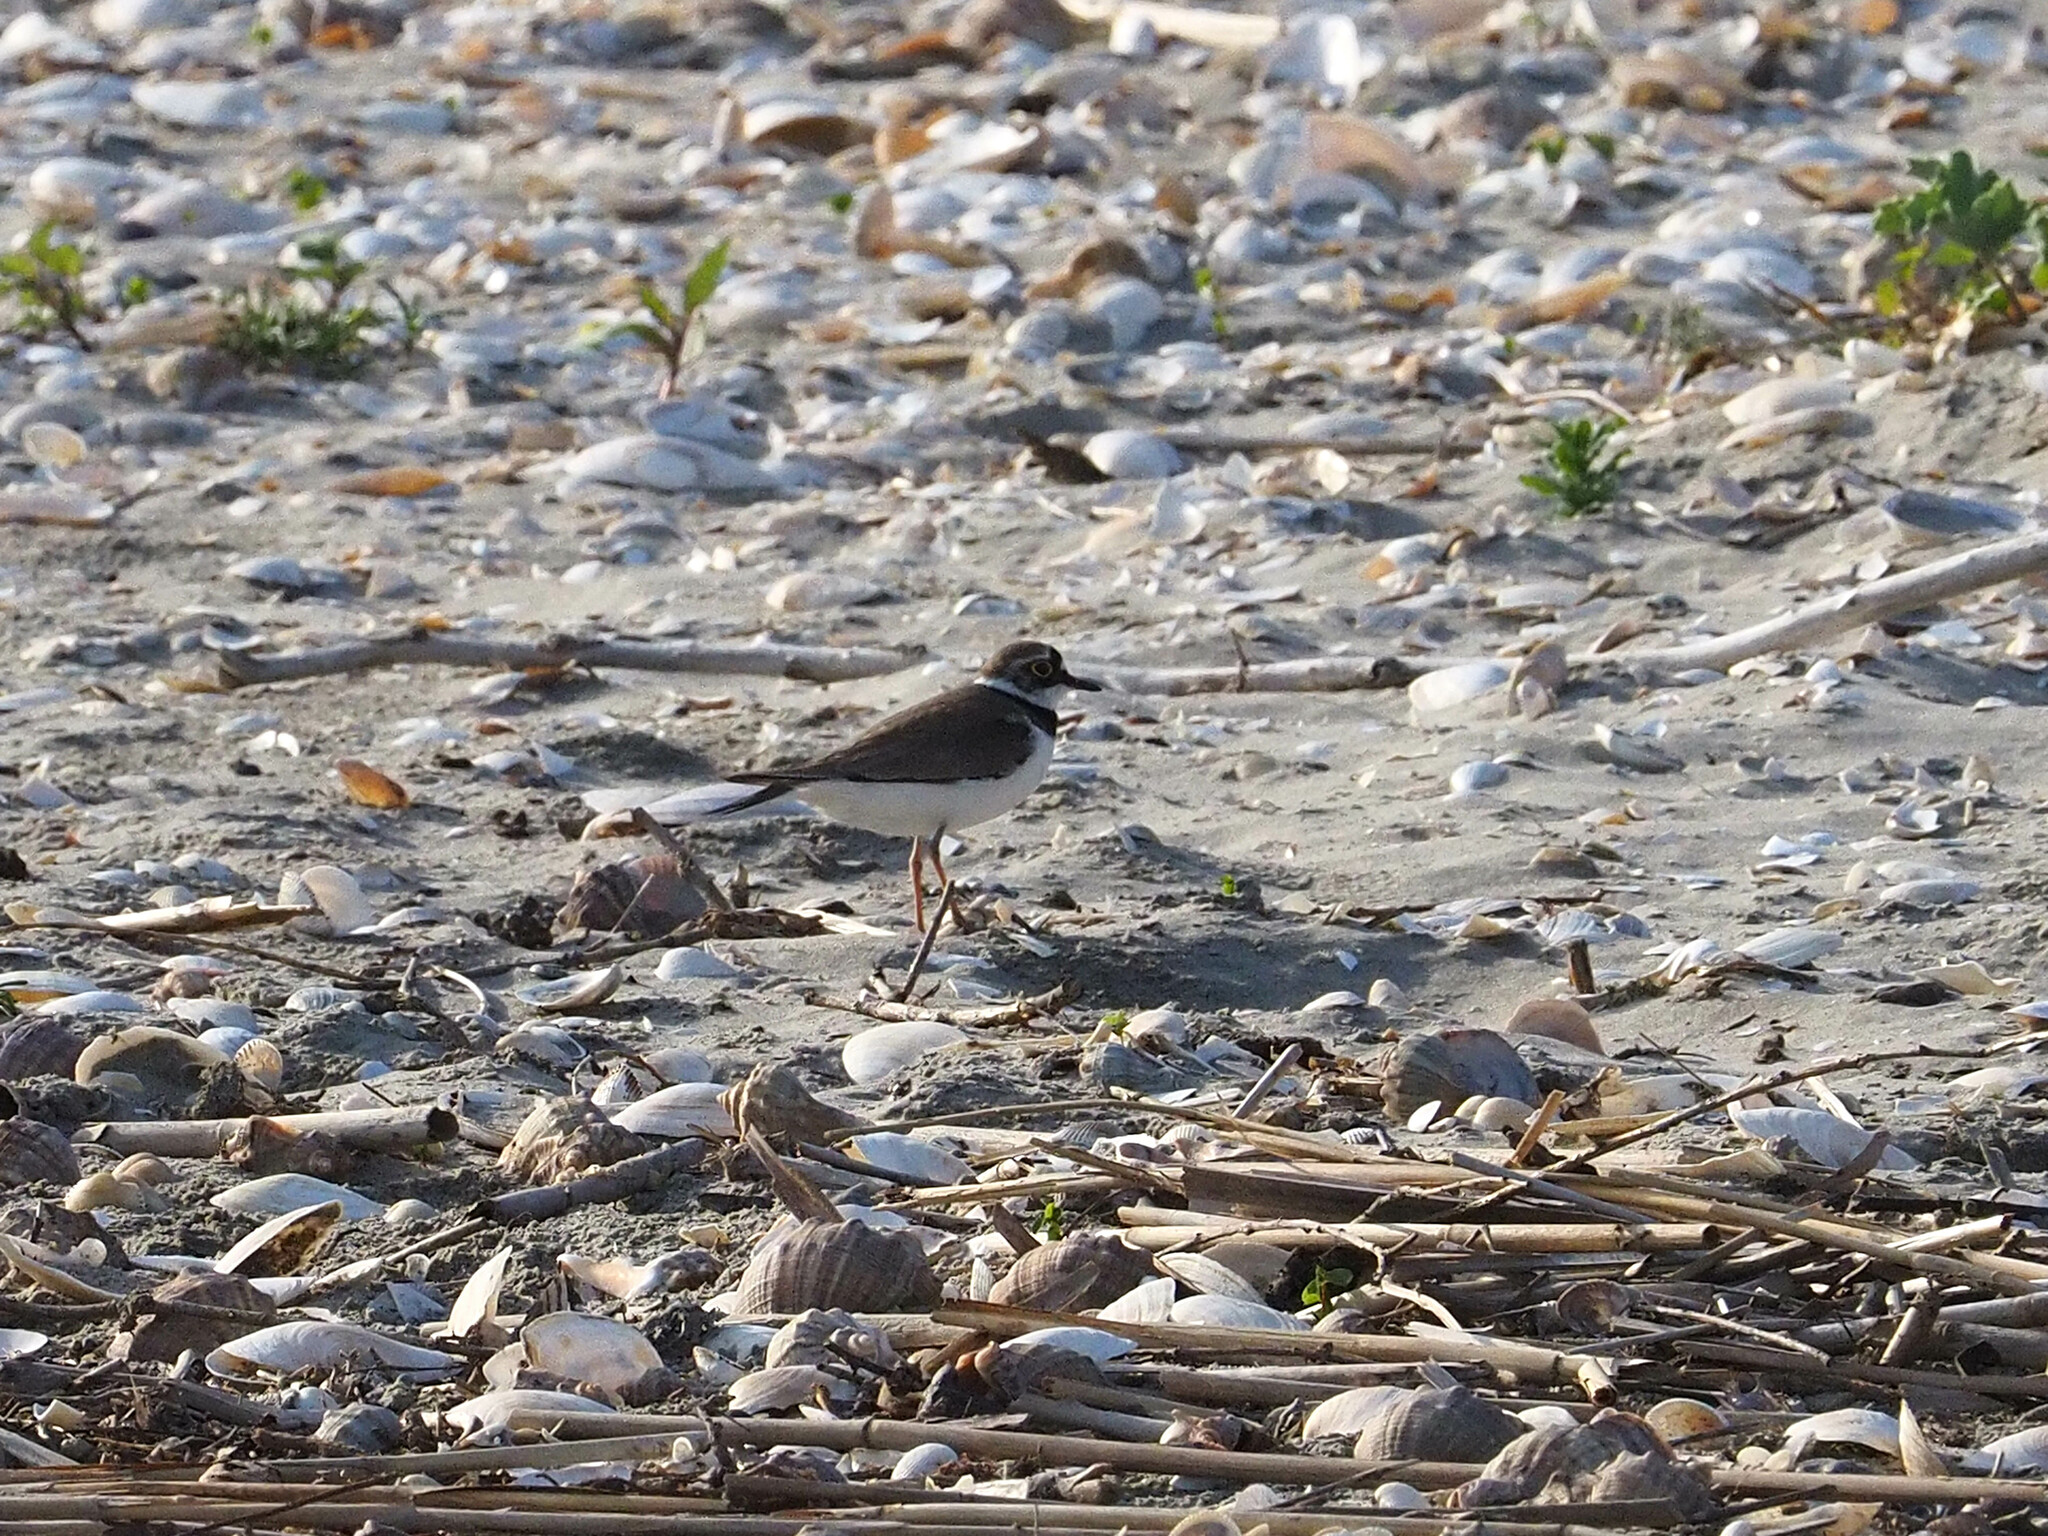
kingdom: Animalia
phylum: Chordata
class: Aves
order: Charadriiformes
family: Charadriidae
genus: Charadrius
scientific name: Charadrius dubius
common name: Little ringed plover
